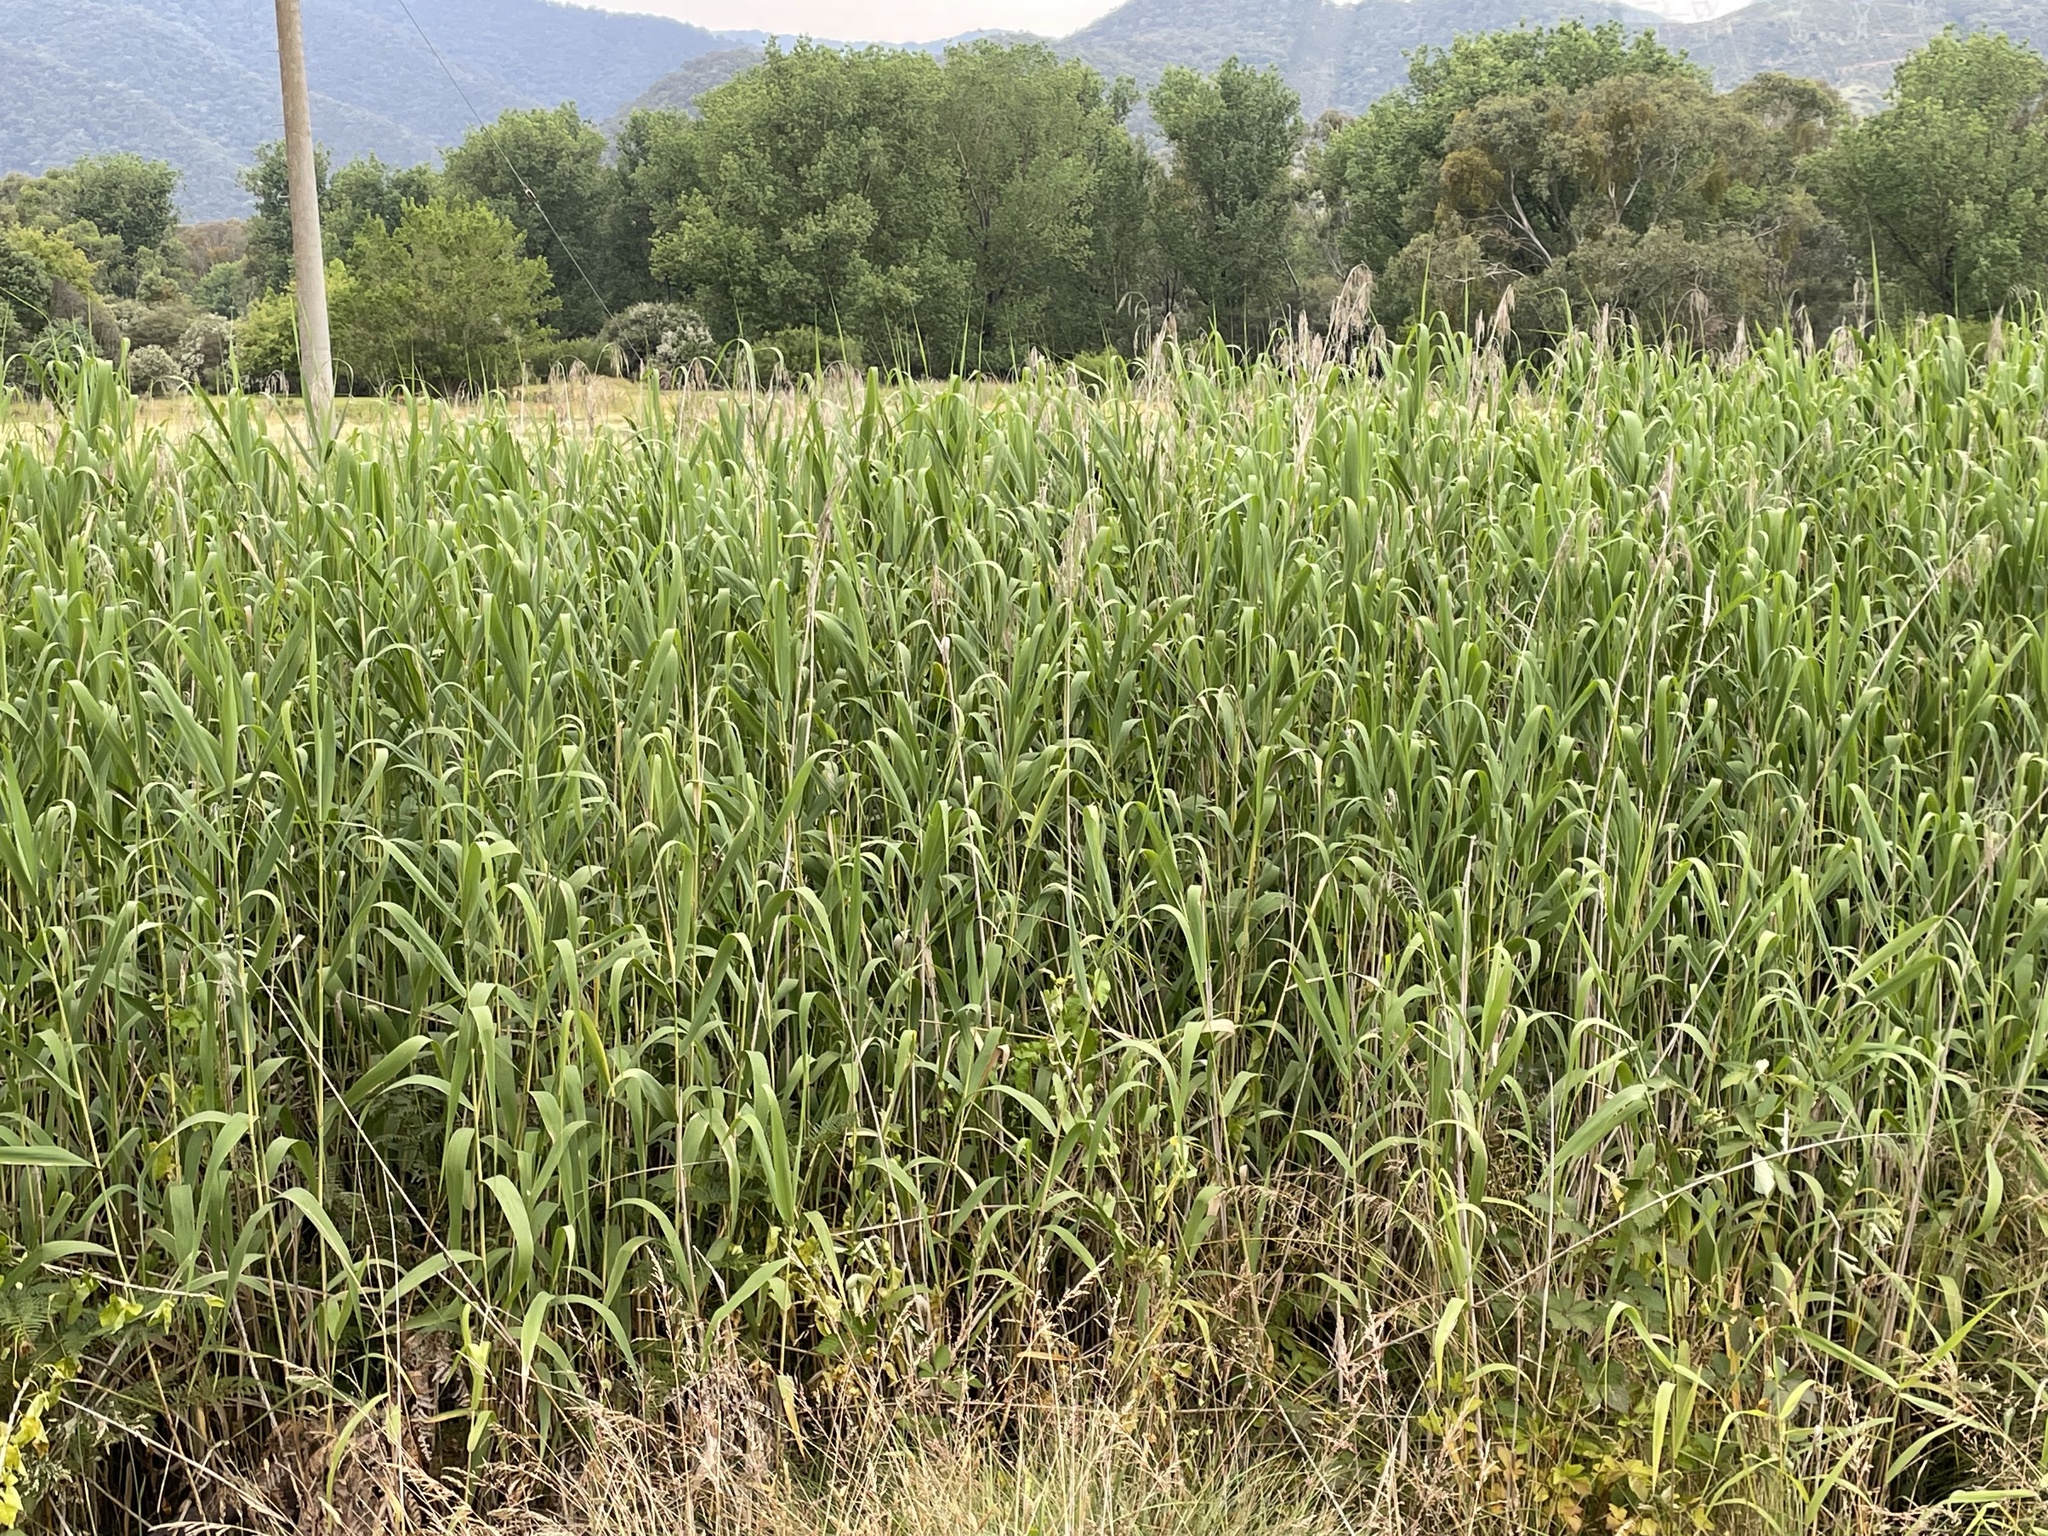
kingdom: Plantae
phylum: Tracheophyta
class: Liliopsida
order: Poales
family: Poaceae
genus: Phragmites
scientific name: Phragmites australis
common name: Common reed
